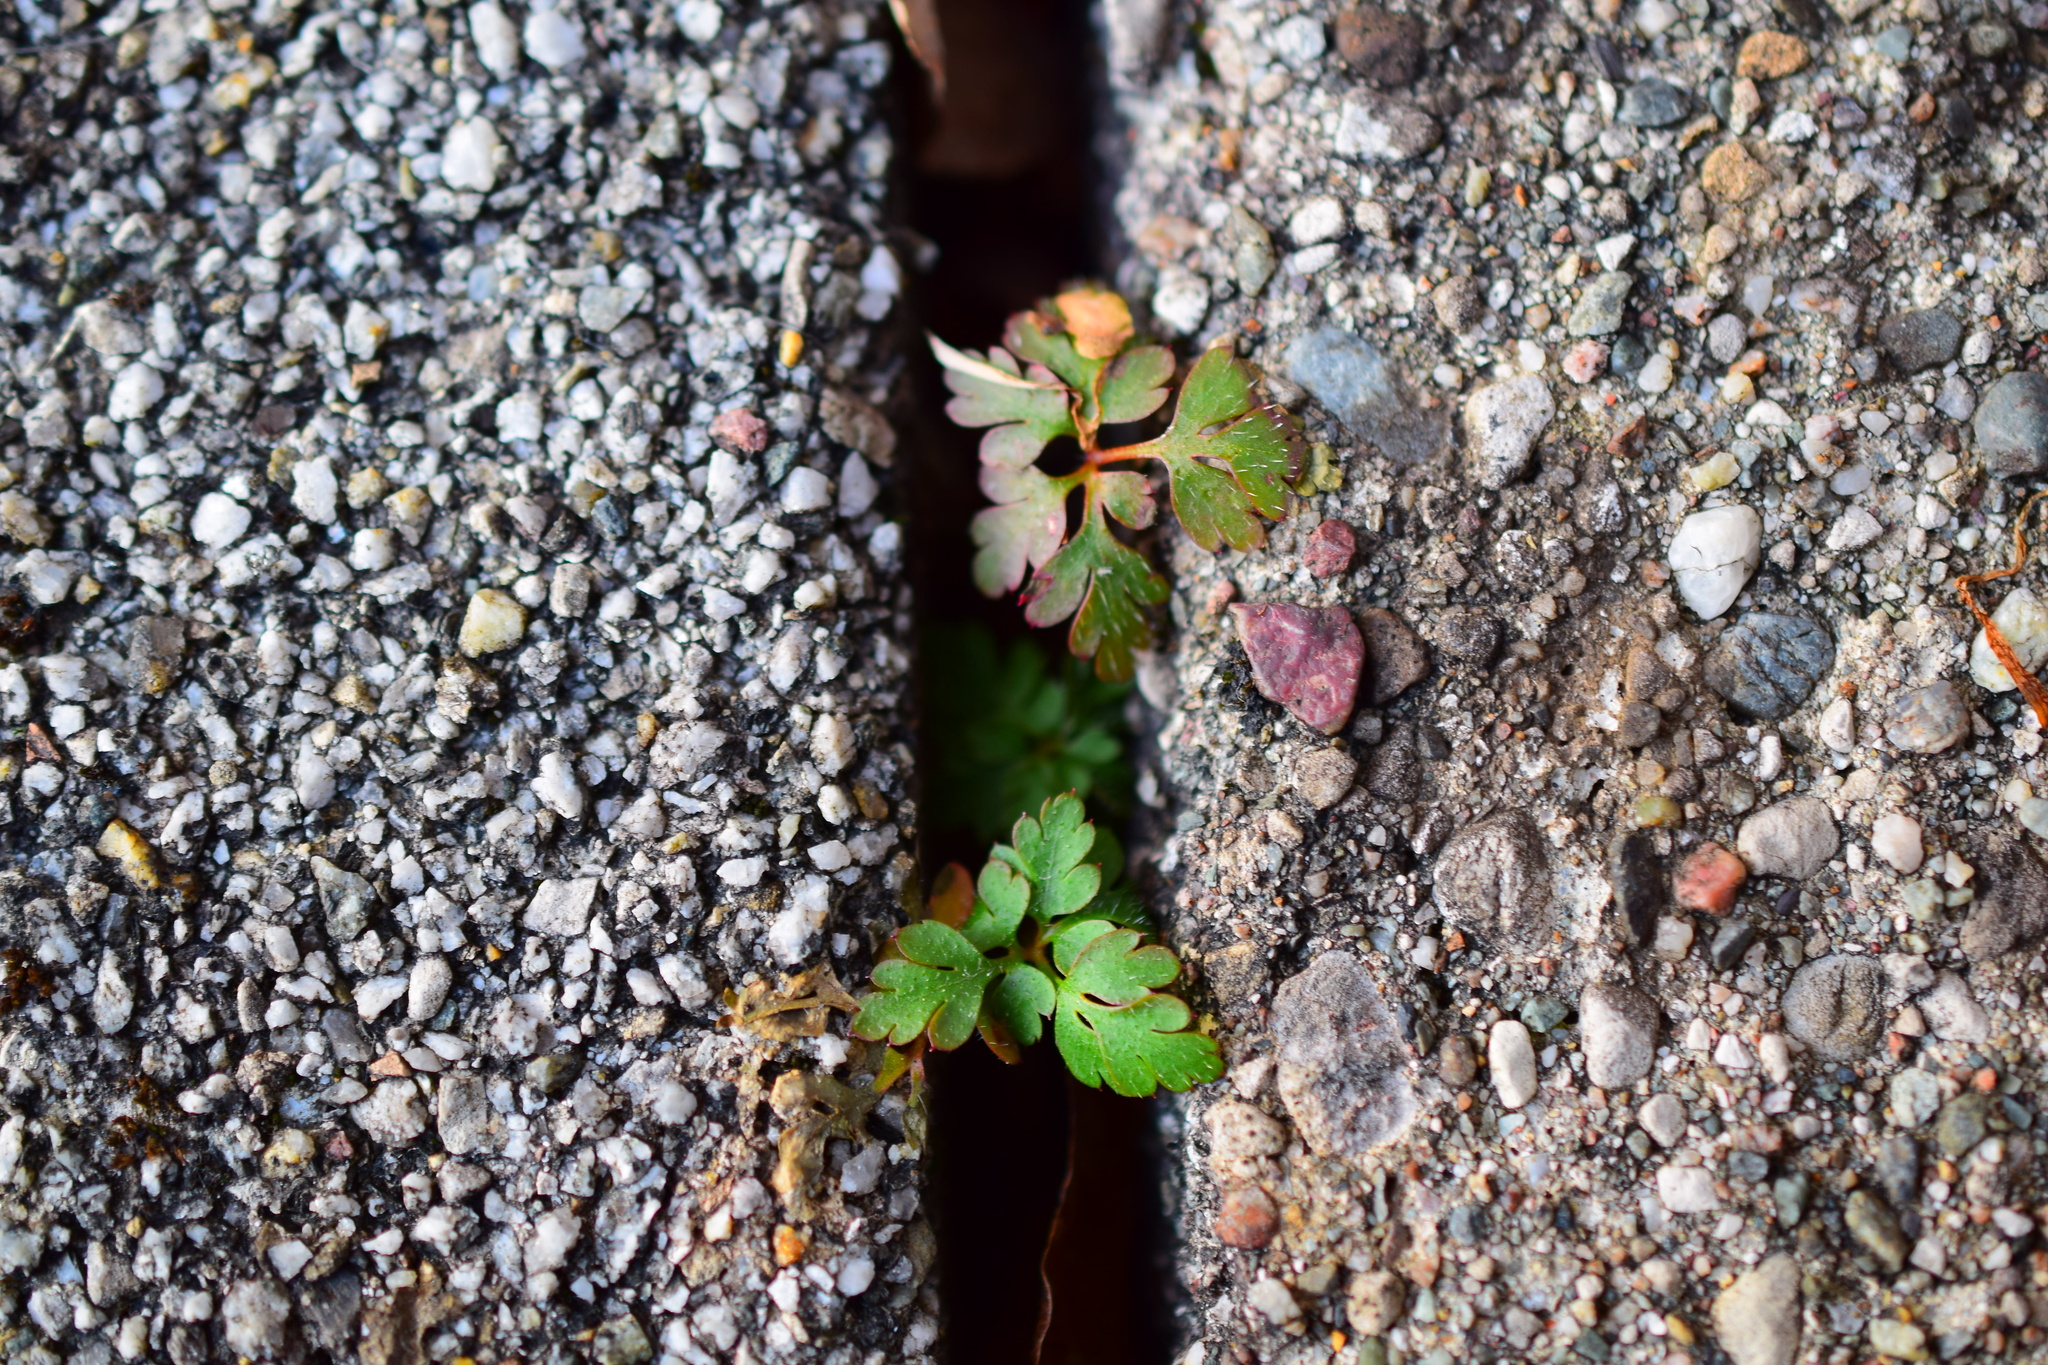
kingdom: Plantae
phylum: Tracheophyta
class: Magnoliopsida
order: Geraniales
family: Geraniaceae
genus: Geranium
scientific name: Geranium robertianum
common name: Herb-robert
